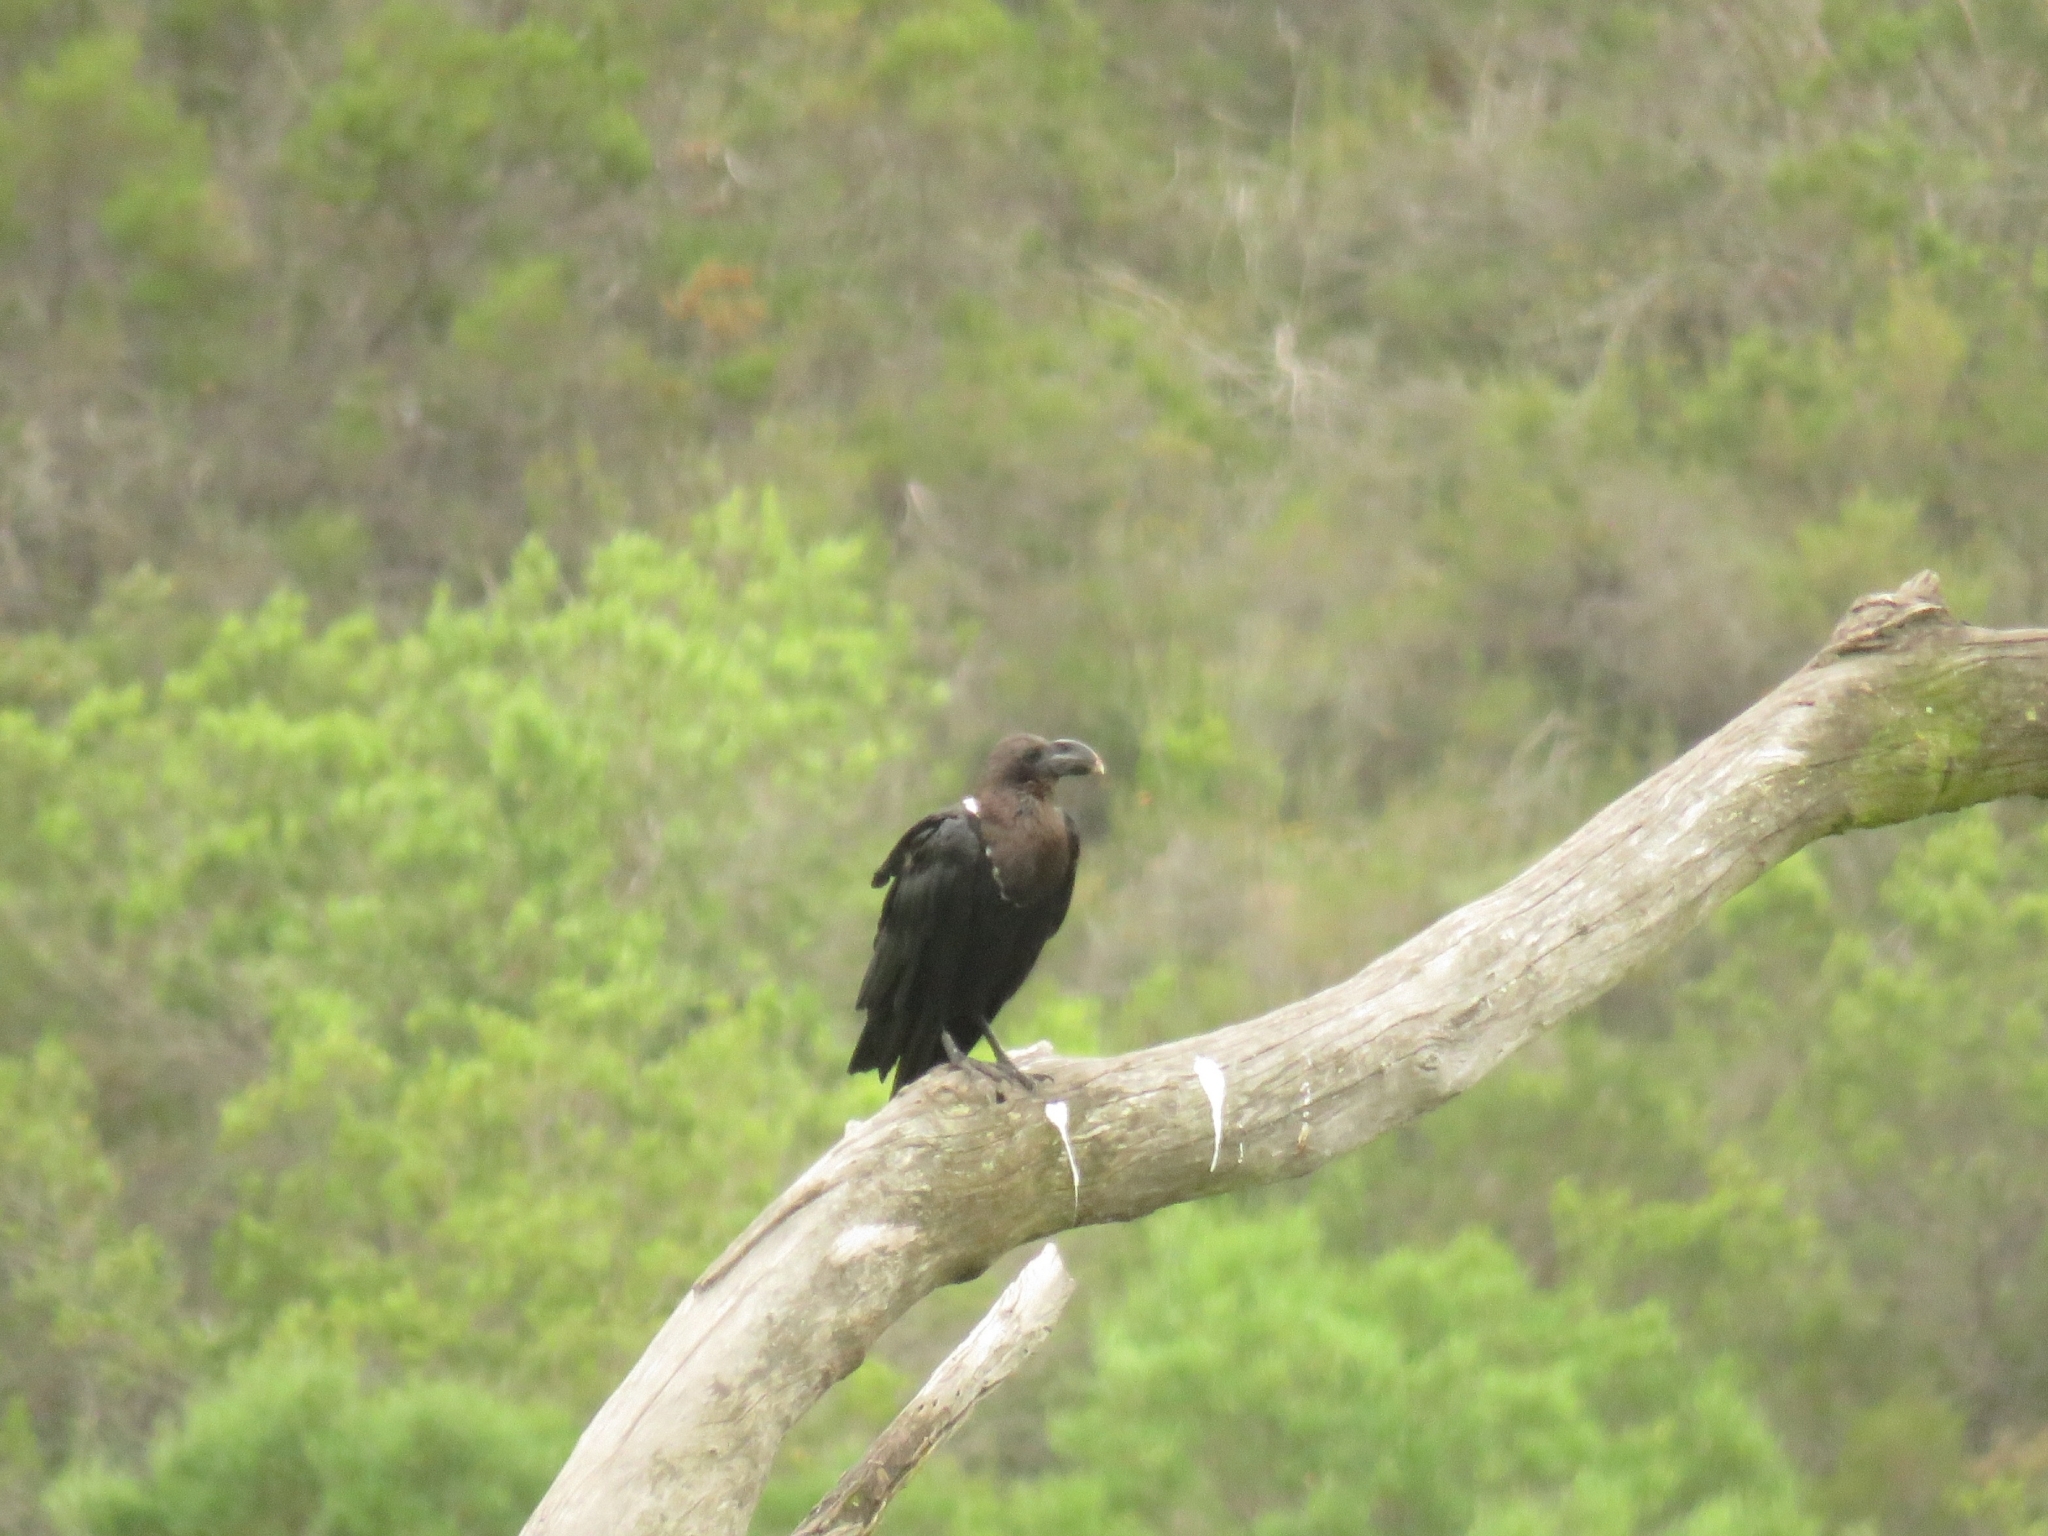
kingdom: Animalia
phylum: Chordata
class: Aves
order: Passeriformes
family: Corvidae
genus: Corvus
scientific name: Corvus albicollis
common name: White-necked raven
